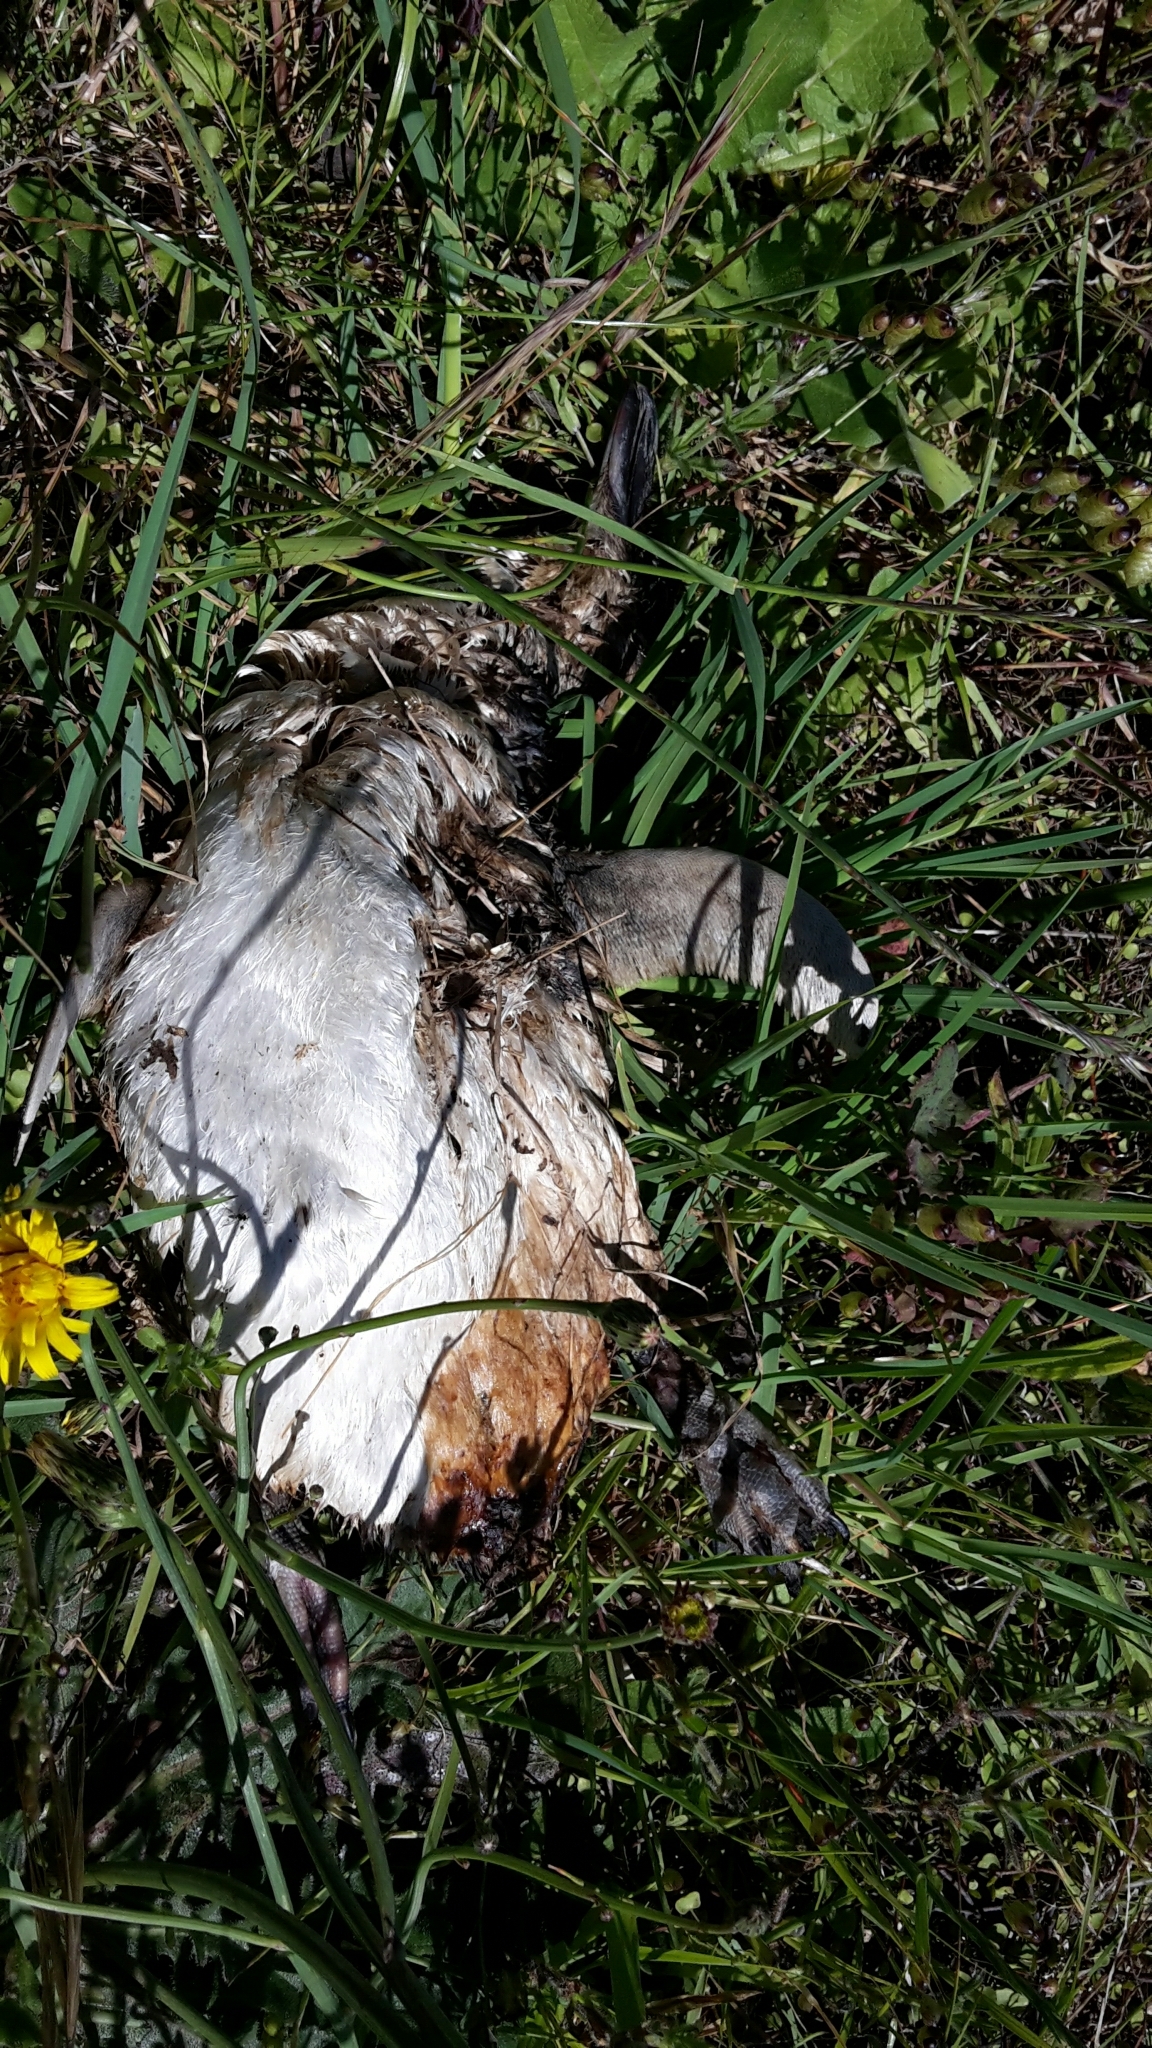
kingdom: Animalia
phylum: Chordata
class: Aves
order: Sphenisciformes
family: Spheniscidae
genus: Eudyptula
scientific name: Eudyptula minor
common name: Little penguin
